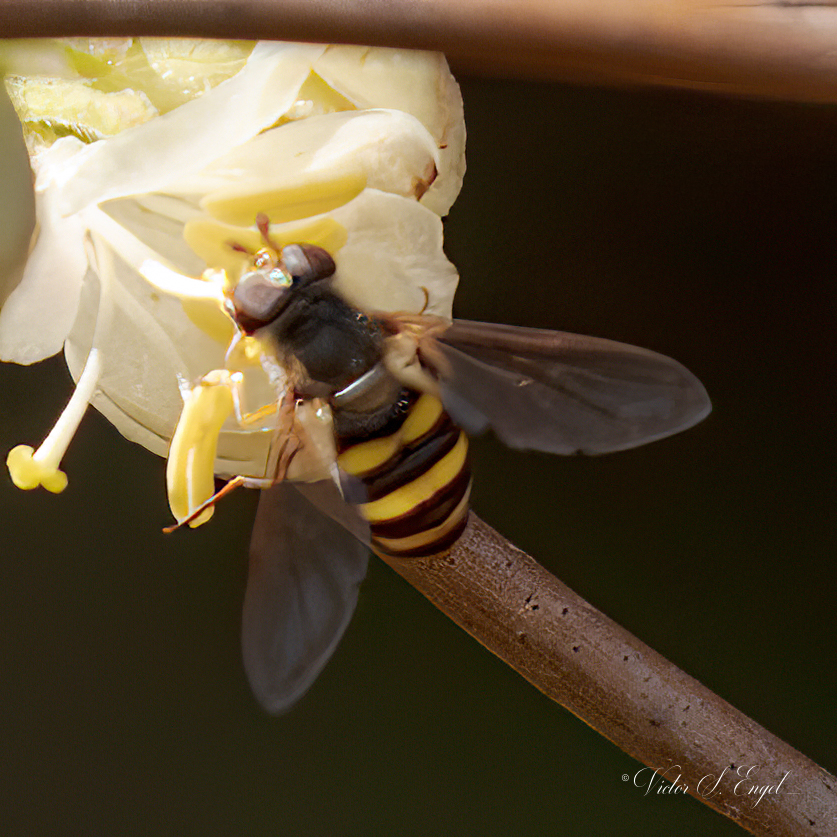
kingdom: Animalia
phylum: Arthropoda
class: Insecta
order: Diptera
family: Syrphidae
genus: Eupeodes
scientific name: Eupeodes
